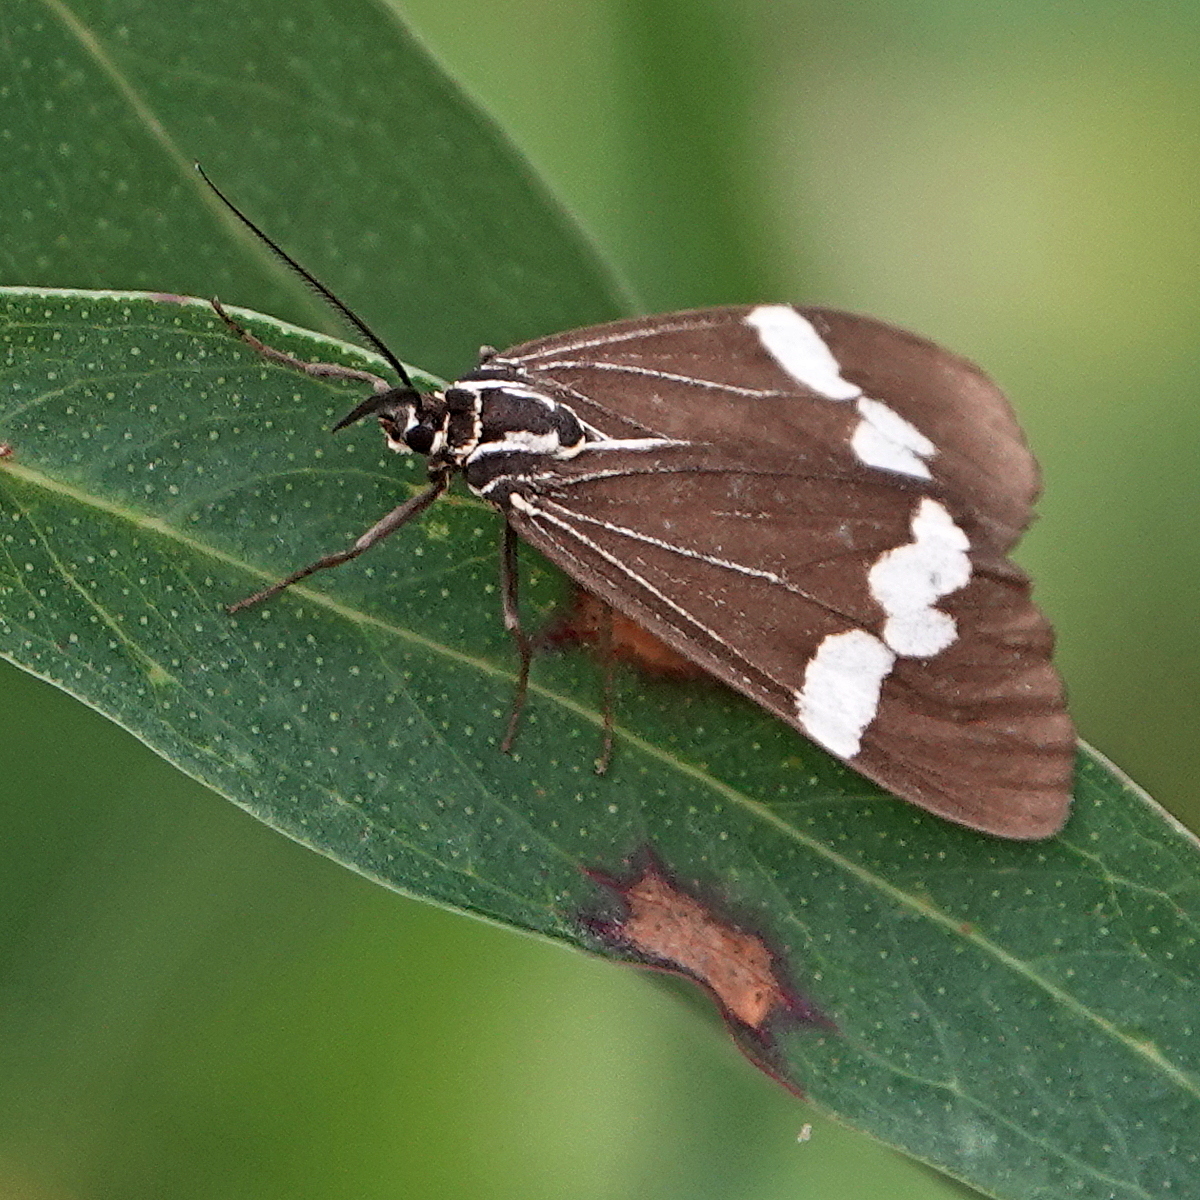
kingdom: Animalia
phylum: Arthropoda
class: Insecta
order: Lepidoptera
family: Erebidae
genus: Nyctemera
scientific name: Nyctemera amicus
